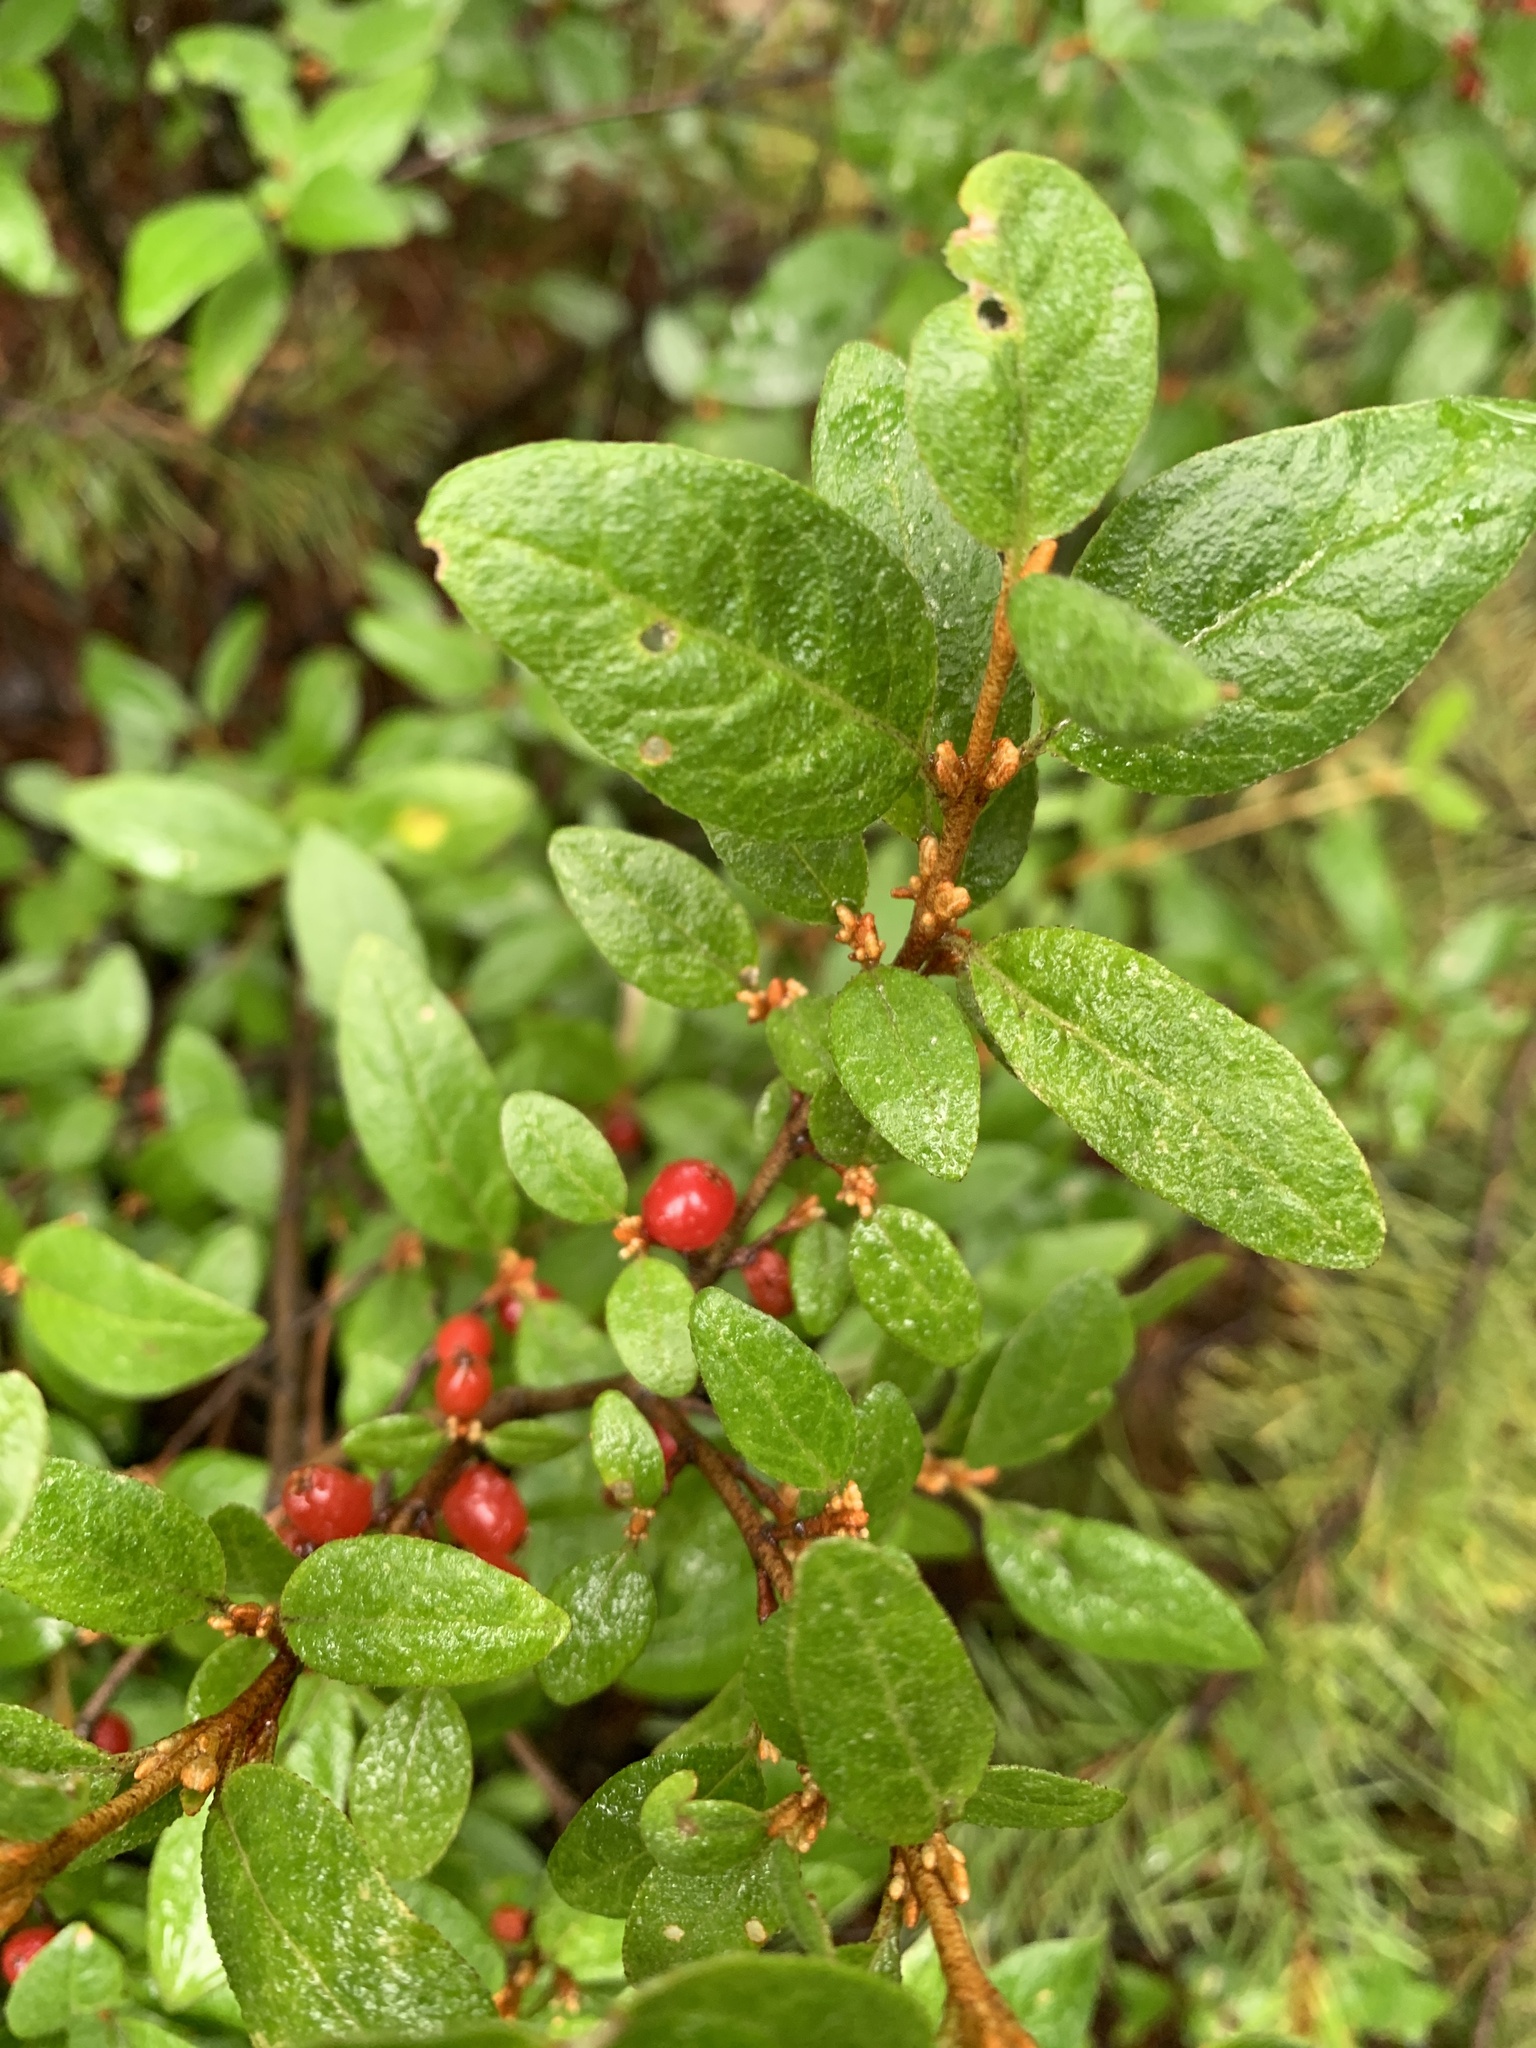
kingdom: Plantae
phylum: Tracheophyta
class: Magnoliopsida
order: Rosales
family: Elaeagnaceae
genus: Shepherdia
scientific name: Shepherdia canadensis
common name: Soapberry
